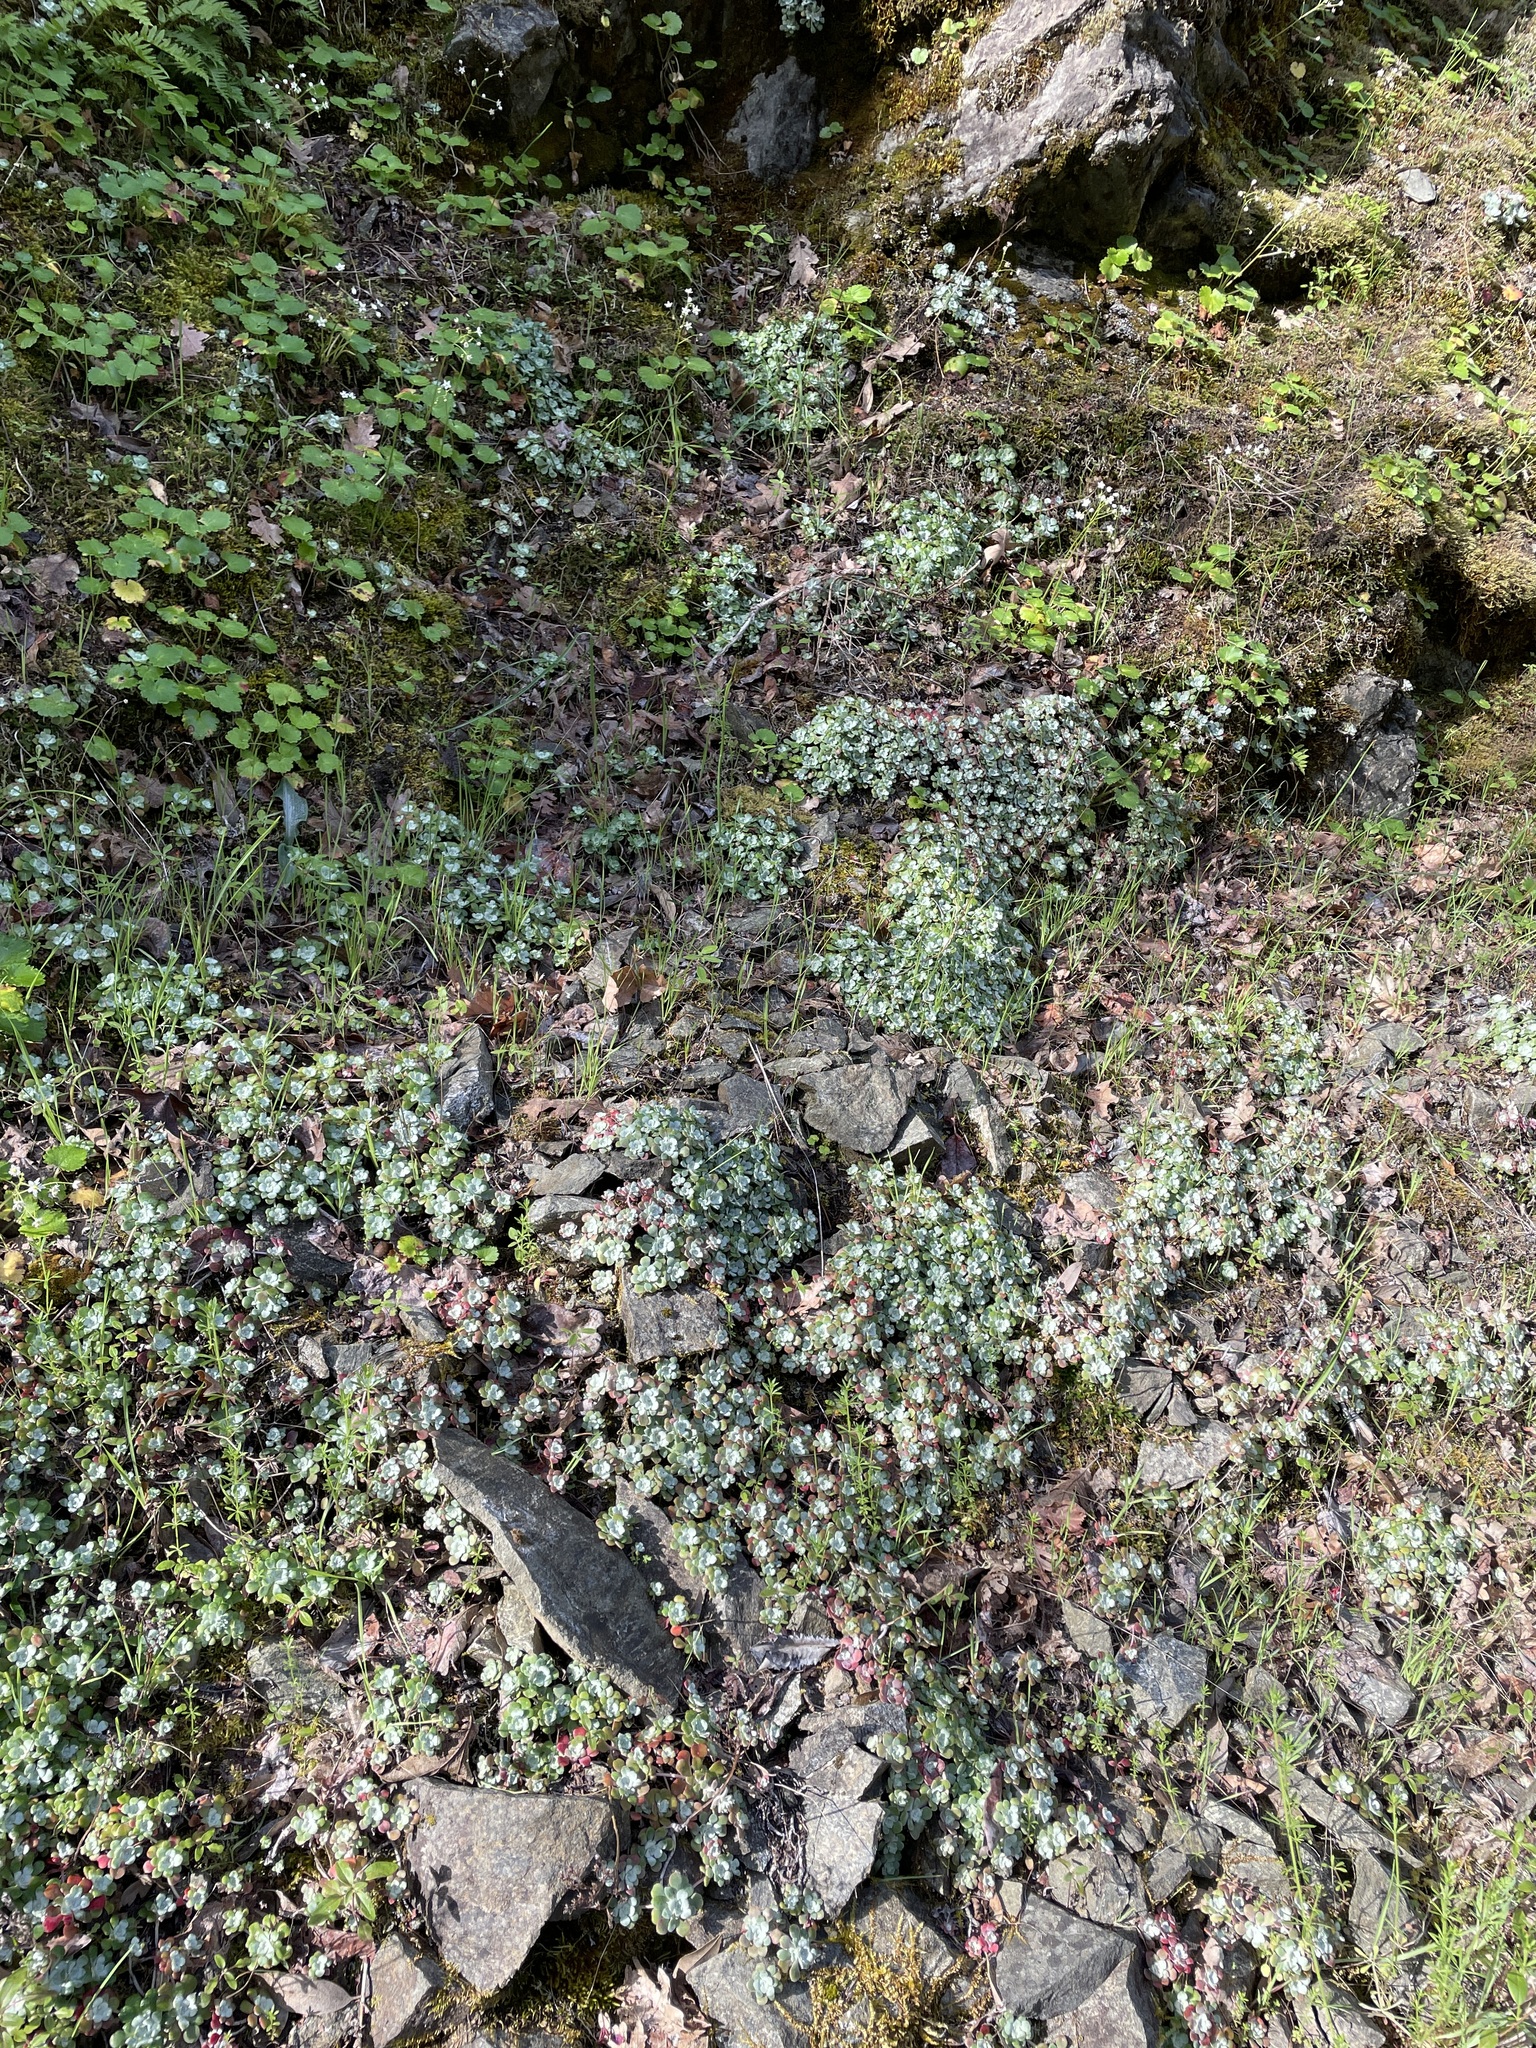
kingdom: Plantae
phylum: Tracheophyta
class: Magnoliopsida
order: Saxifragales
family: Crassulaceae
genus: Sedum
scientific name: Sedum spathulifolium
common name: Colorado stonecrop
